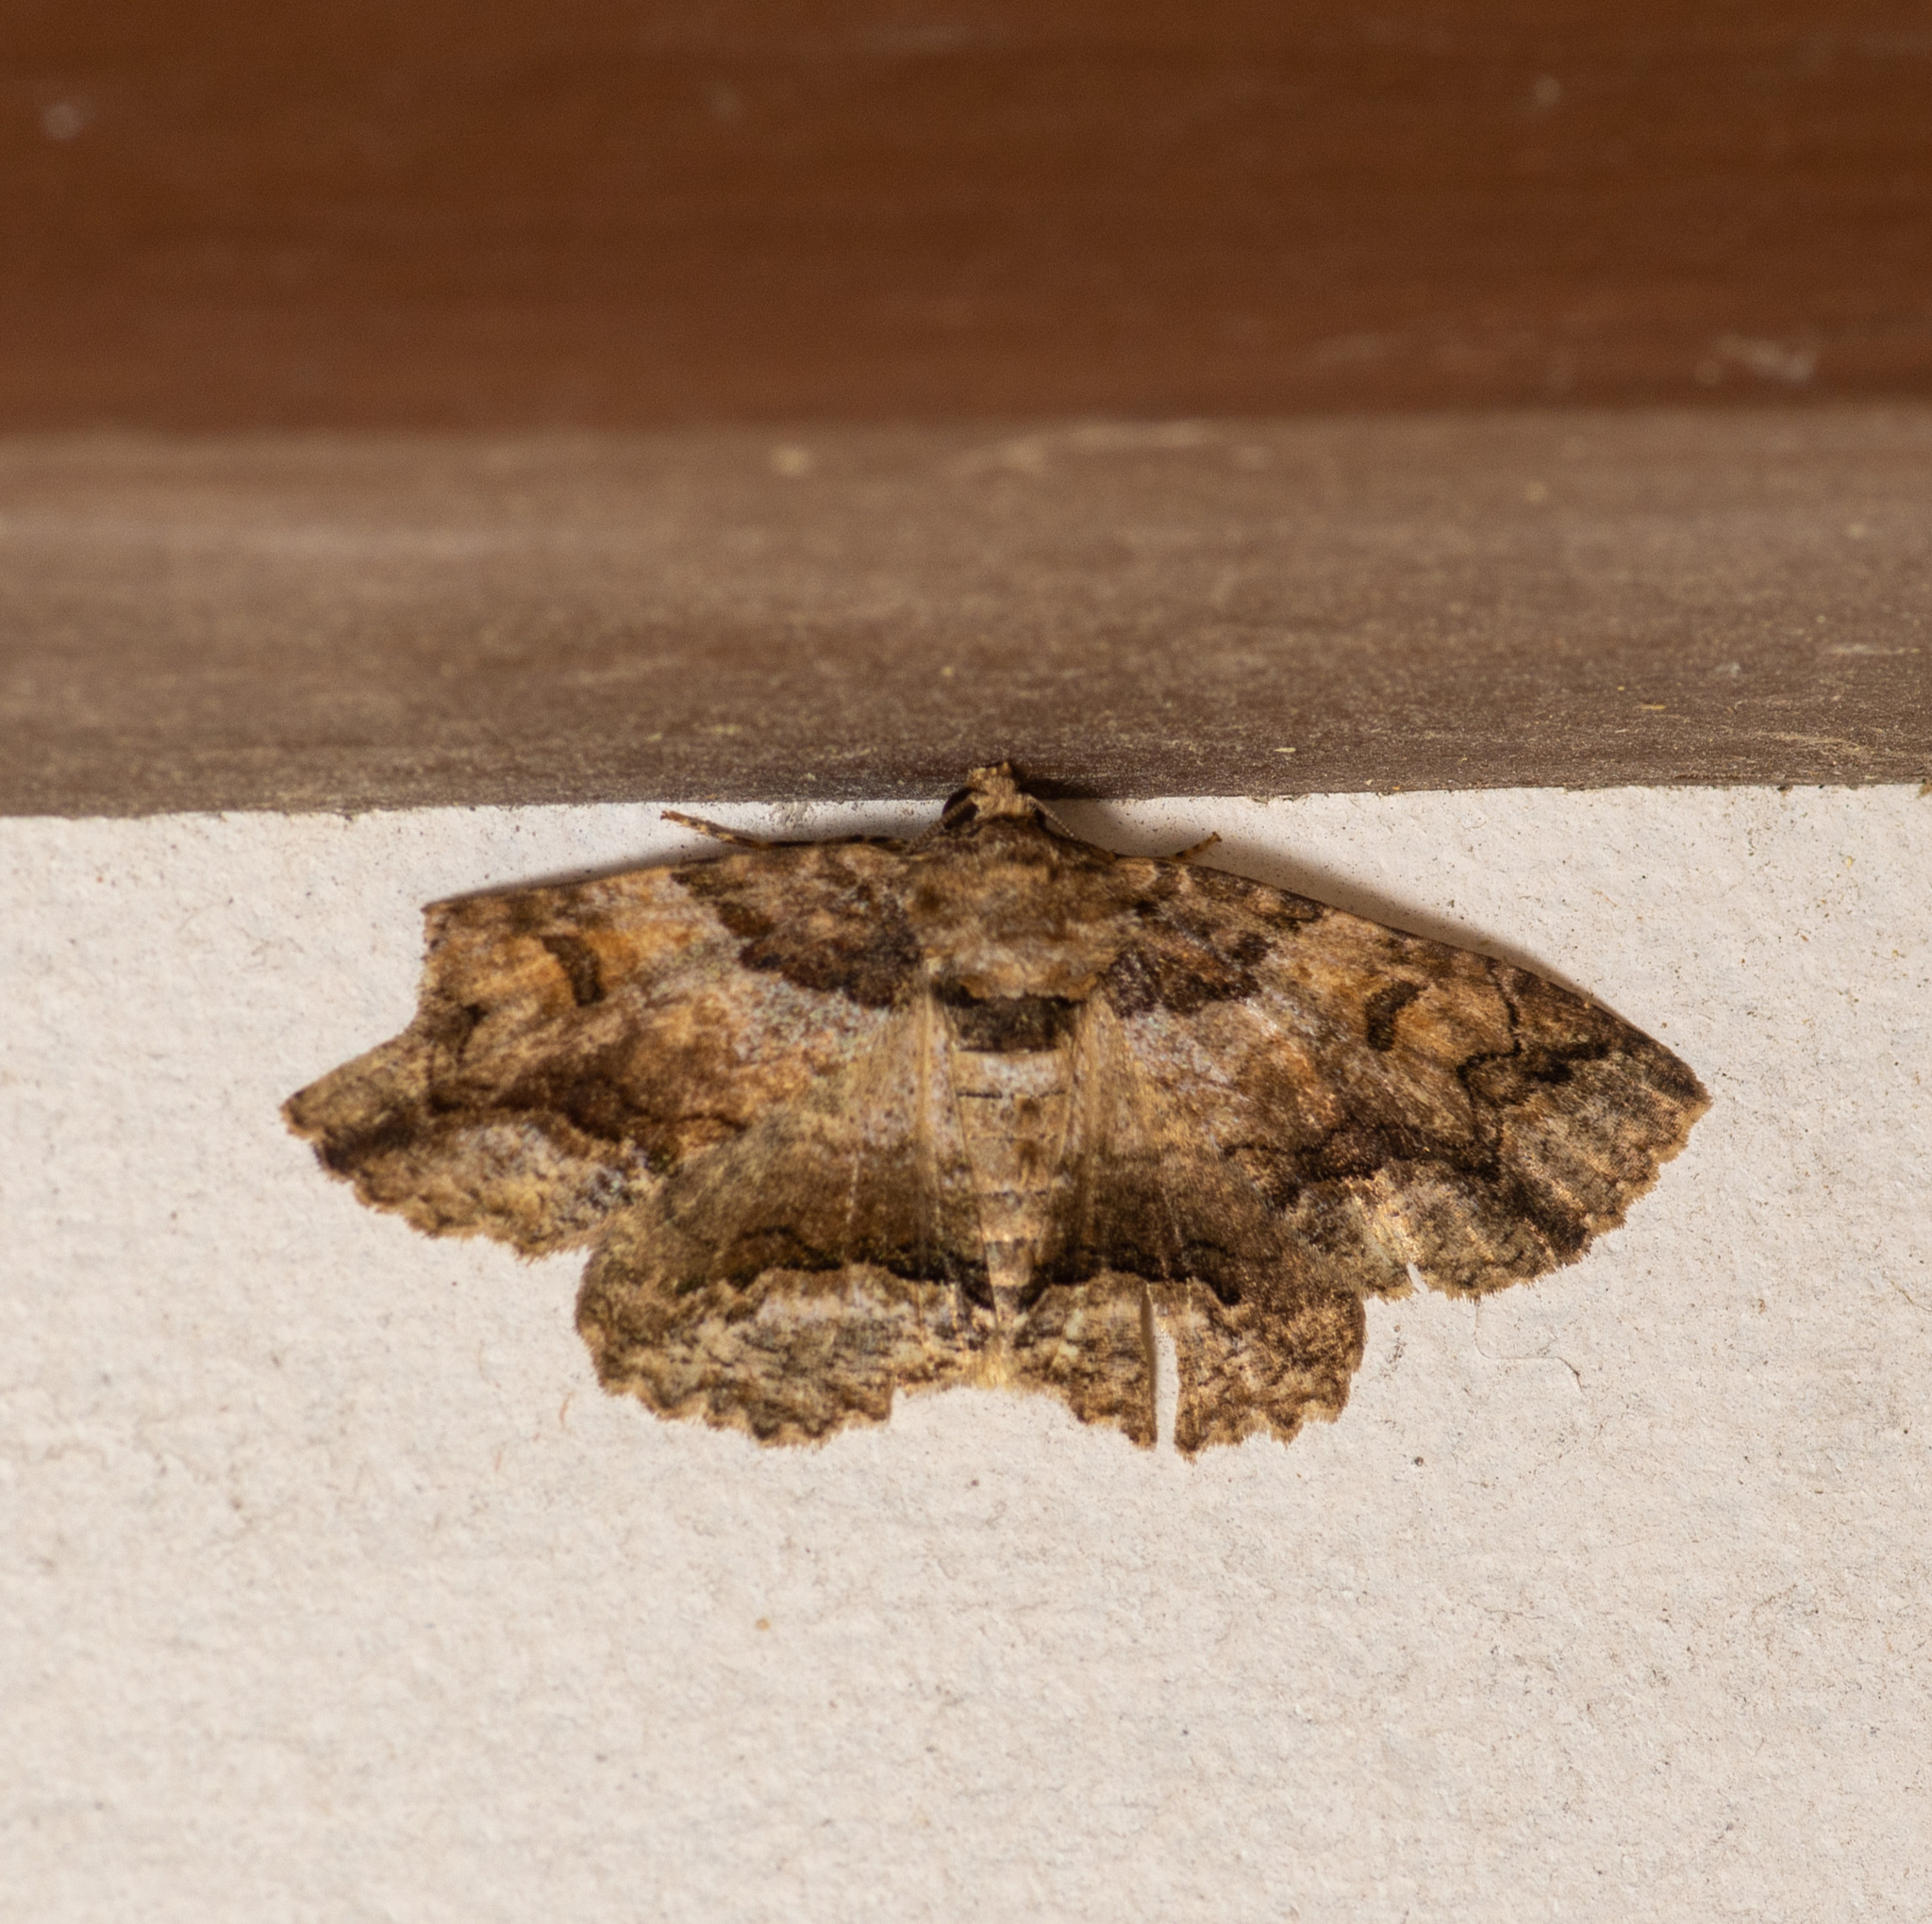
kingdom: Animalia
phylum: Arthropoda
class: Insecta
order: Lepidoptera
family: Erebidae
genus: Zale
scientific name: Zale galbanata
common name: Maple zale
